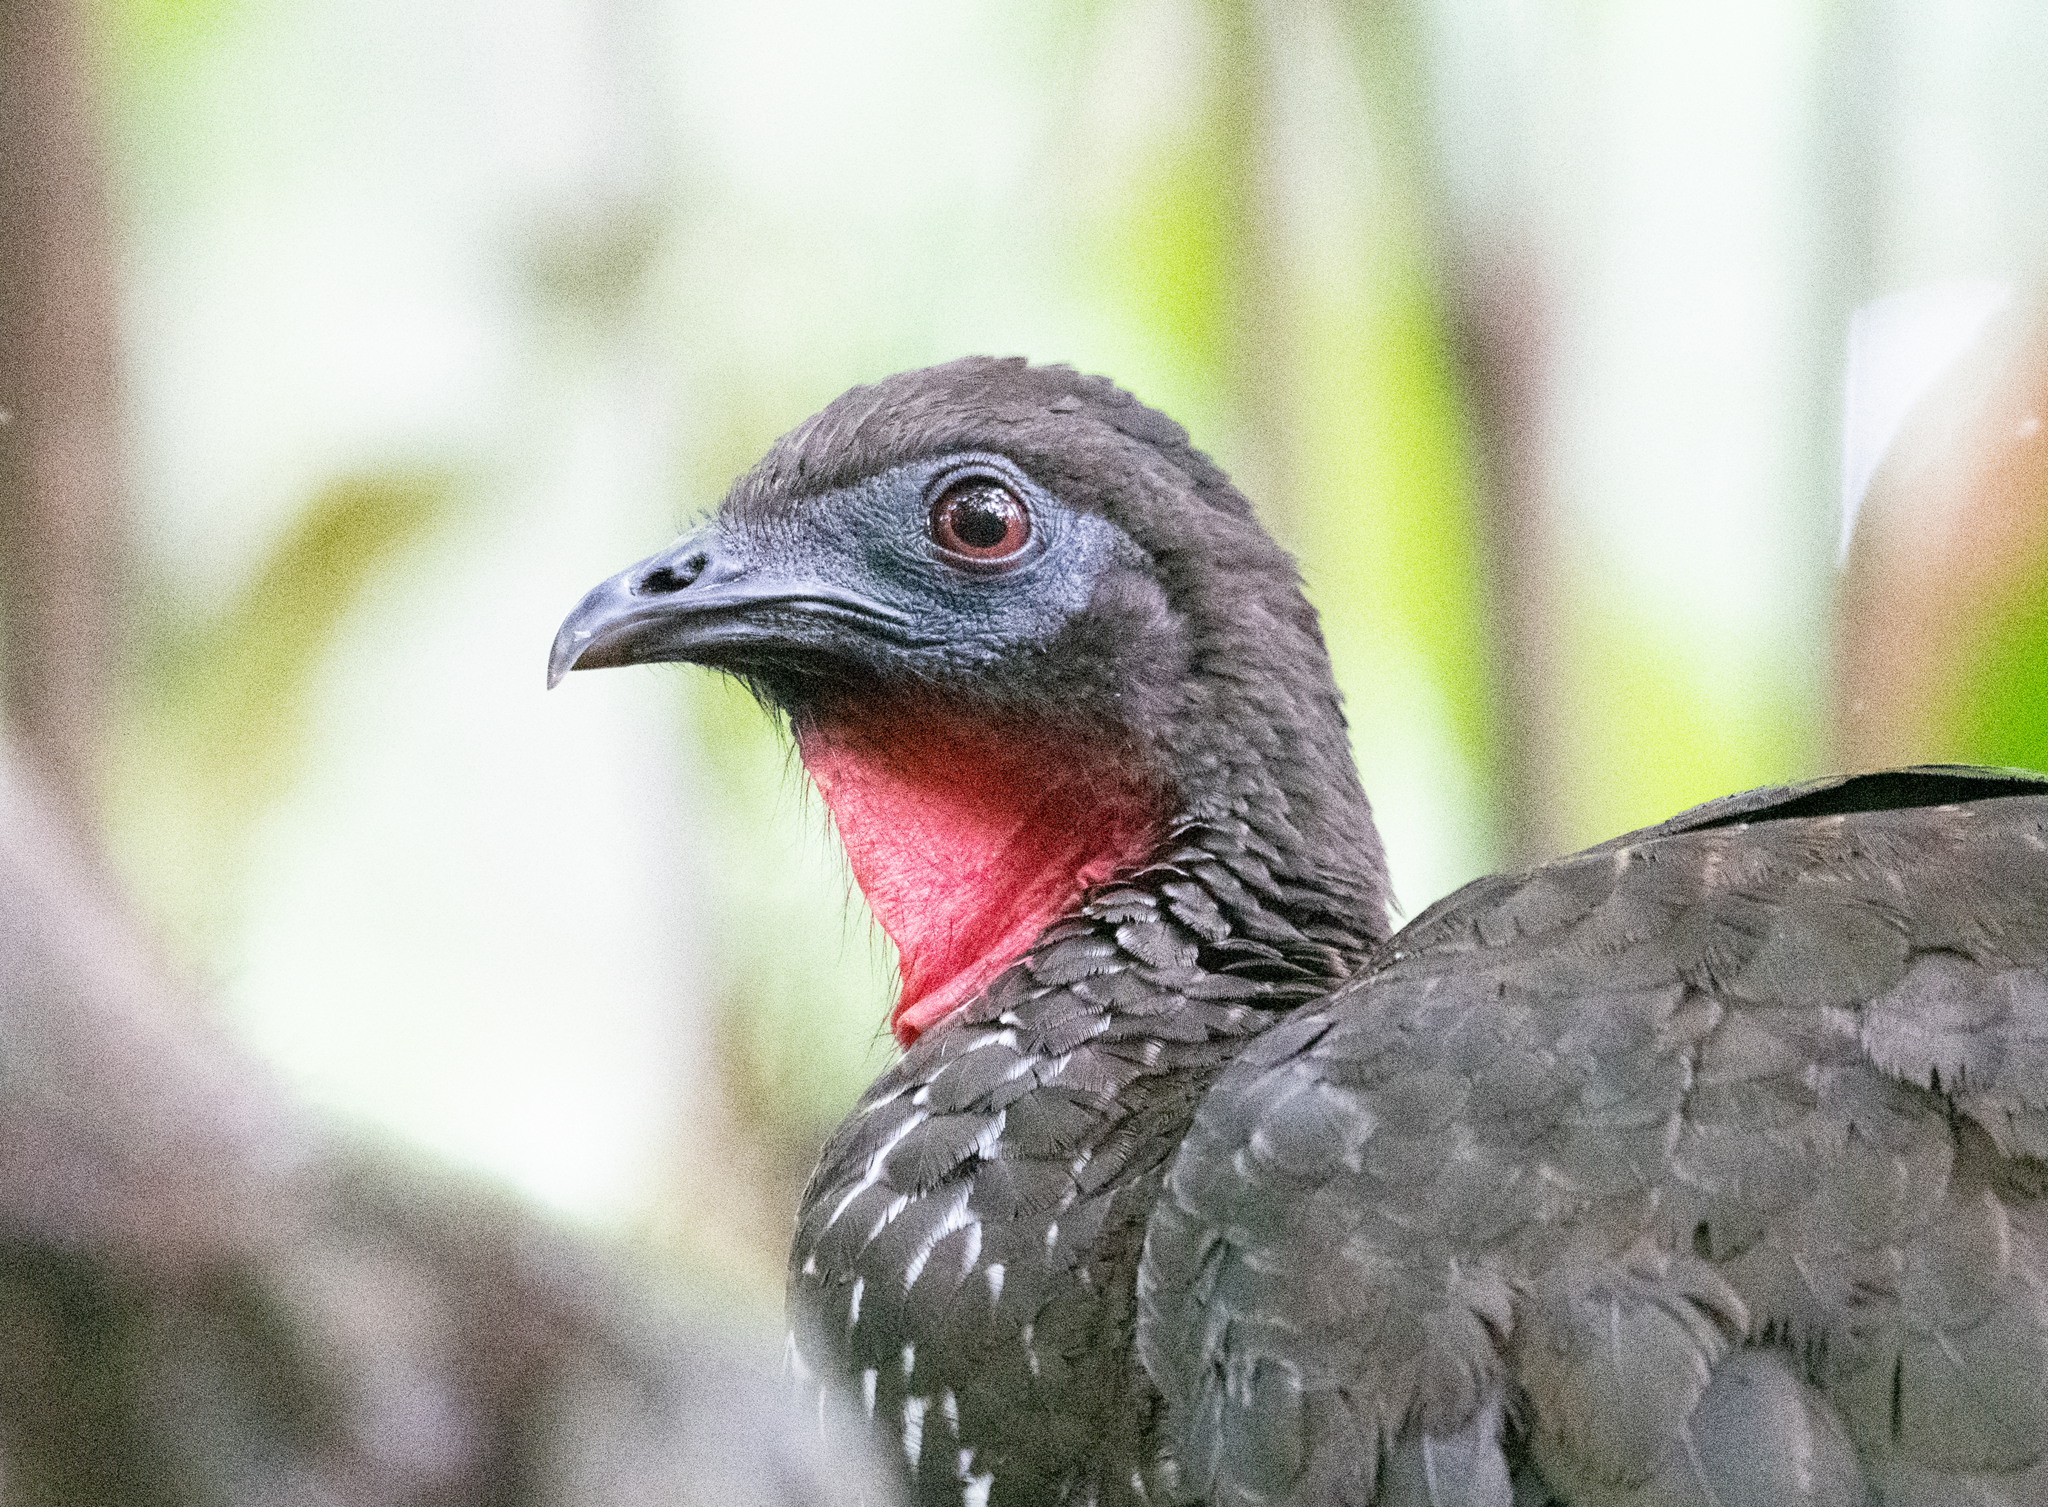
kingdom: Animalia
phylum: Chordata
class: Aves
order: Galliformes
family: Cracidae
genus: Penelope
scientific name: Penelope purpurascens
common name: Crested guan
